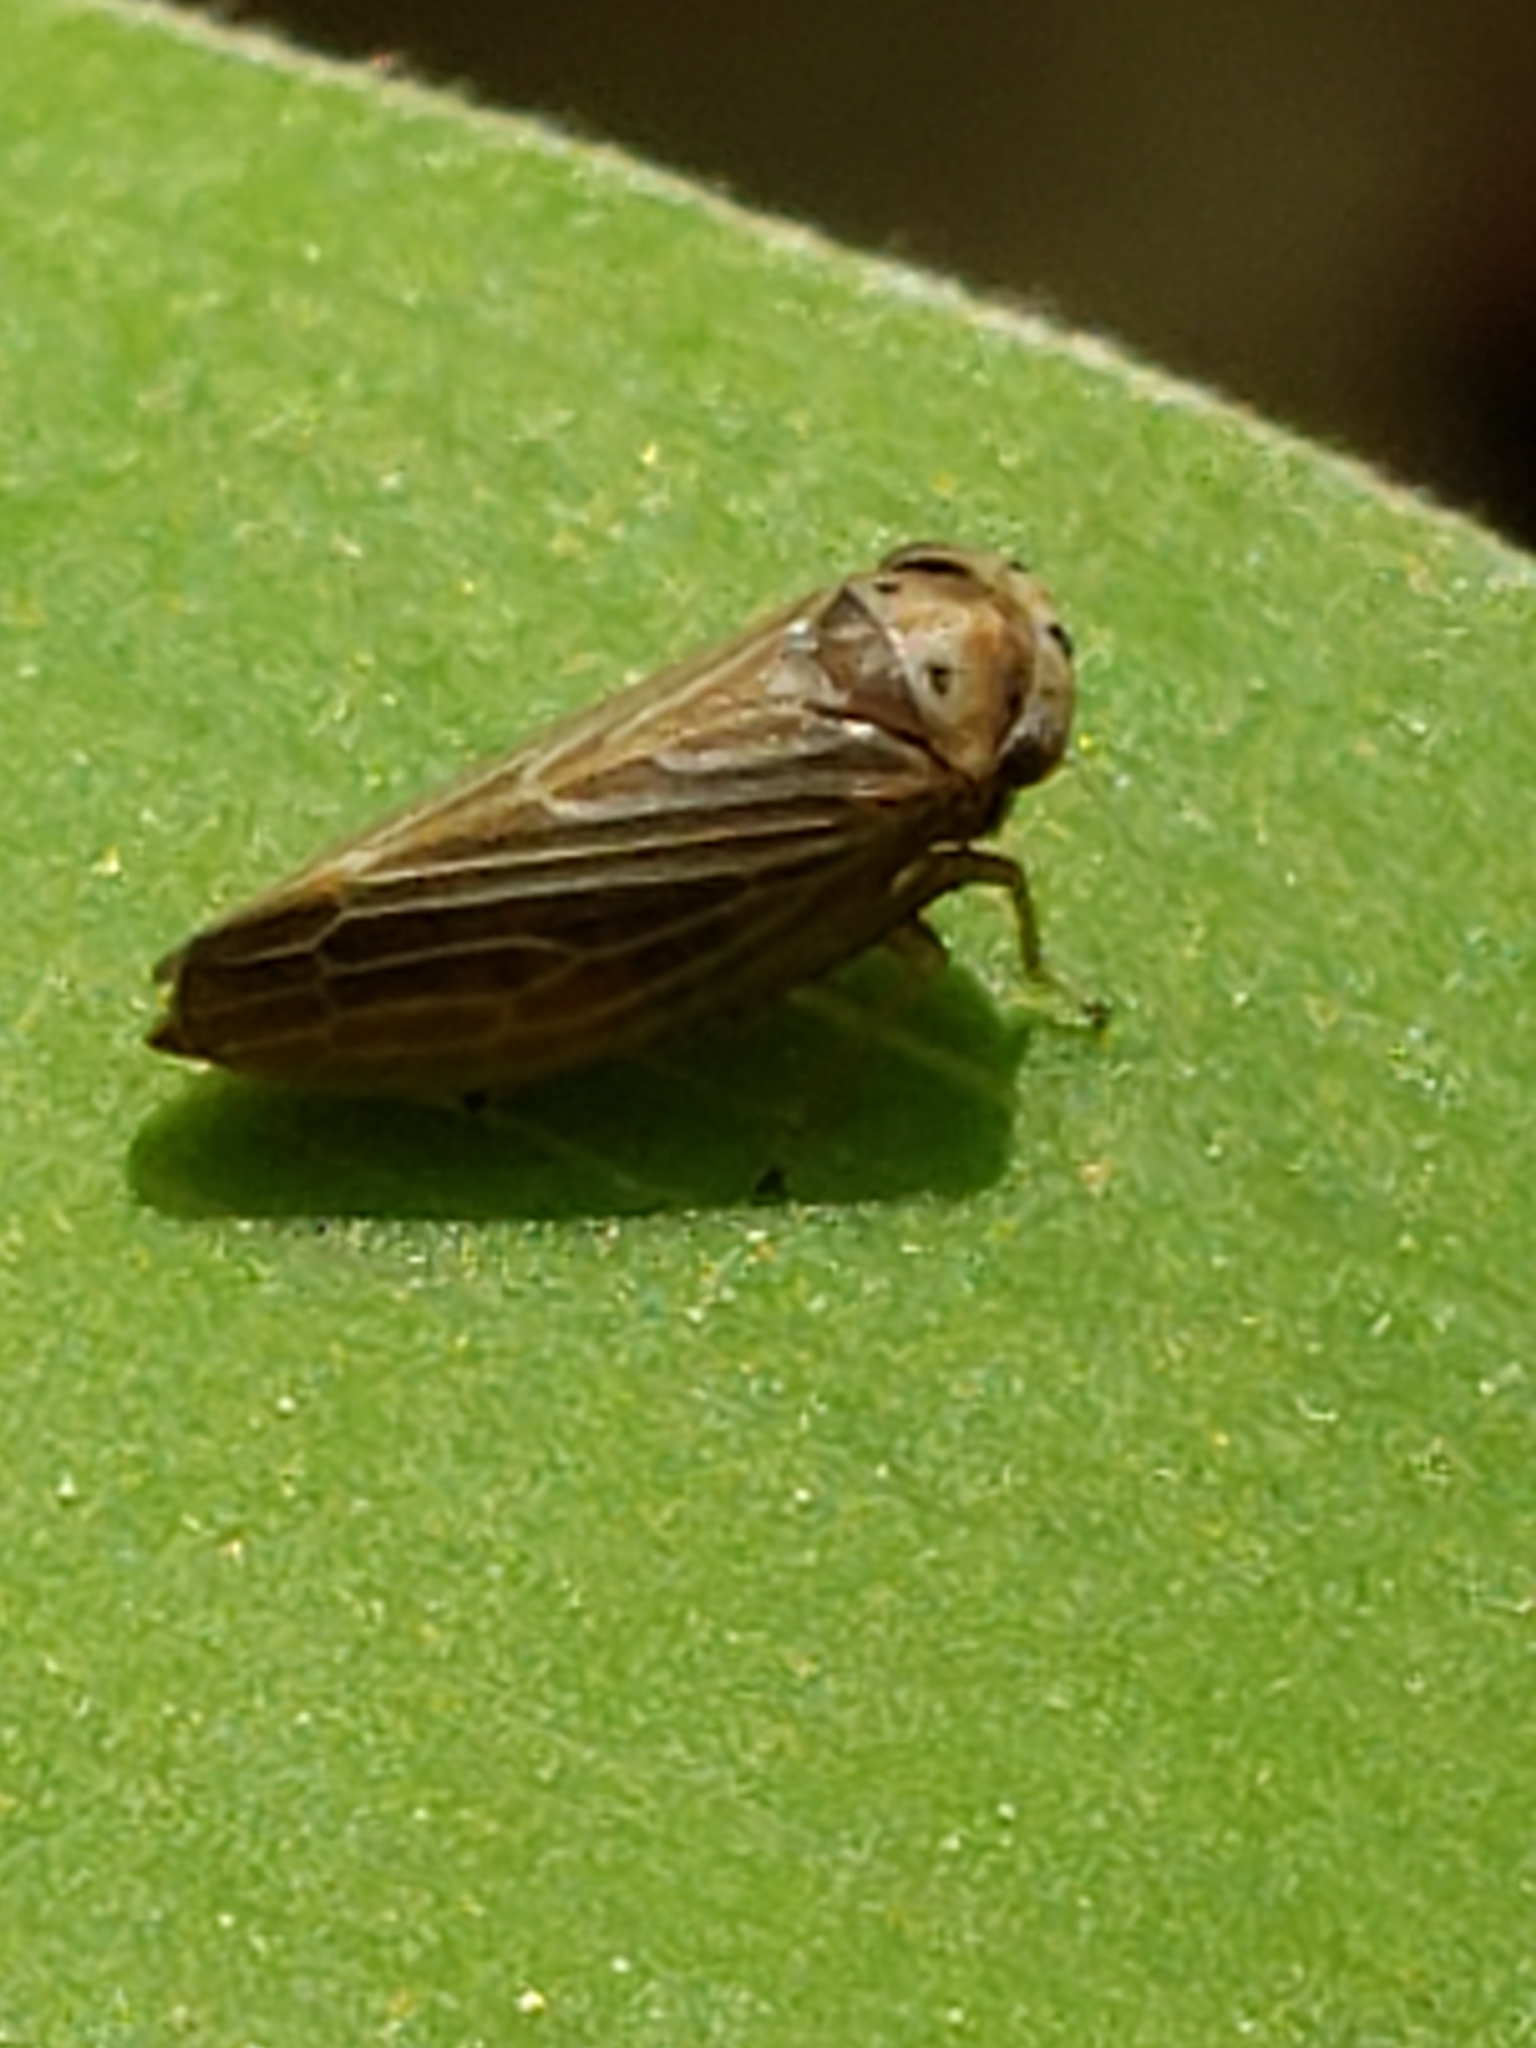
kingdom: Animalia
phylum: Arthropoda
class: Insecta
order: Hemiptera
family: Cicadellidae
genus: Agalliota
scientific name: Agalliota quadripunctata
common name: The four-spotted clover leafhopper
